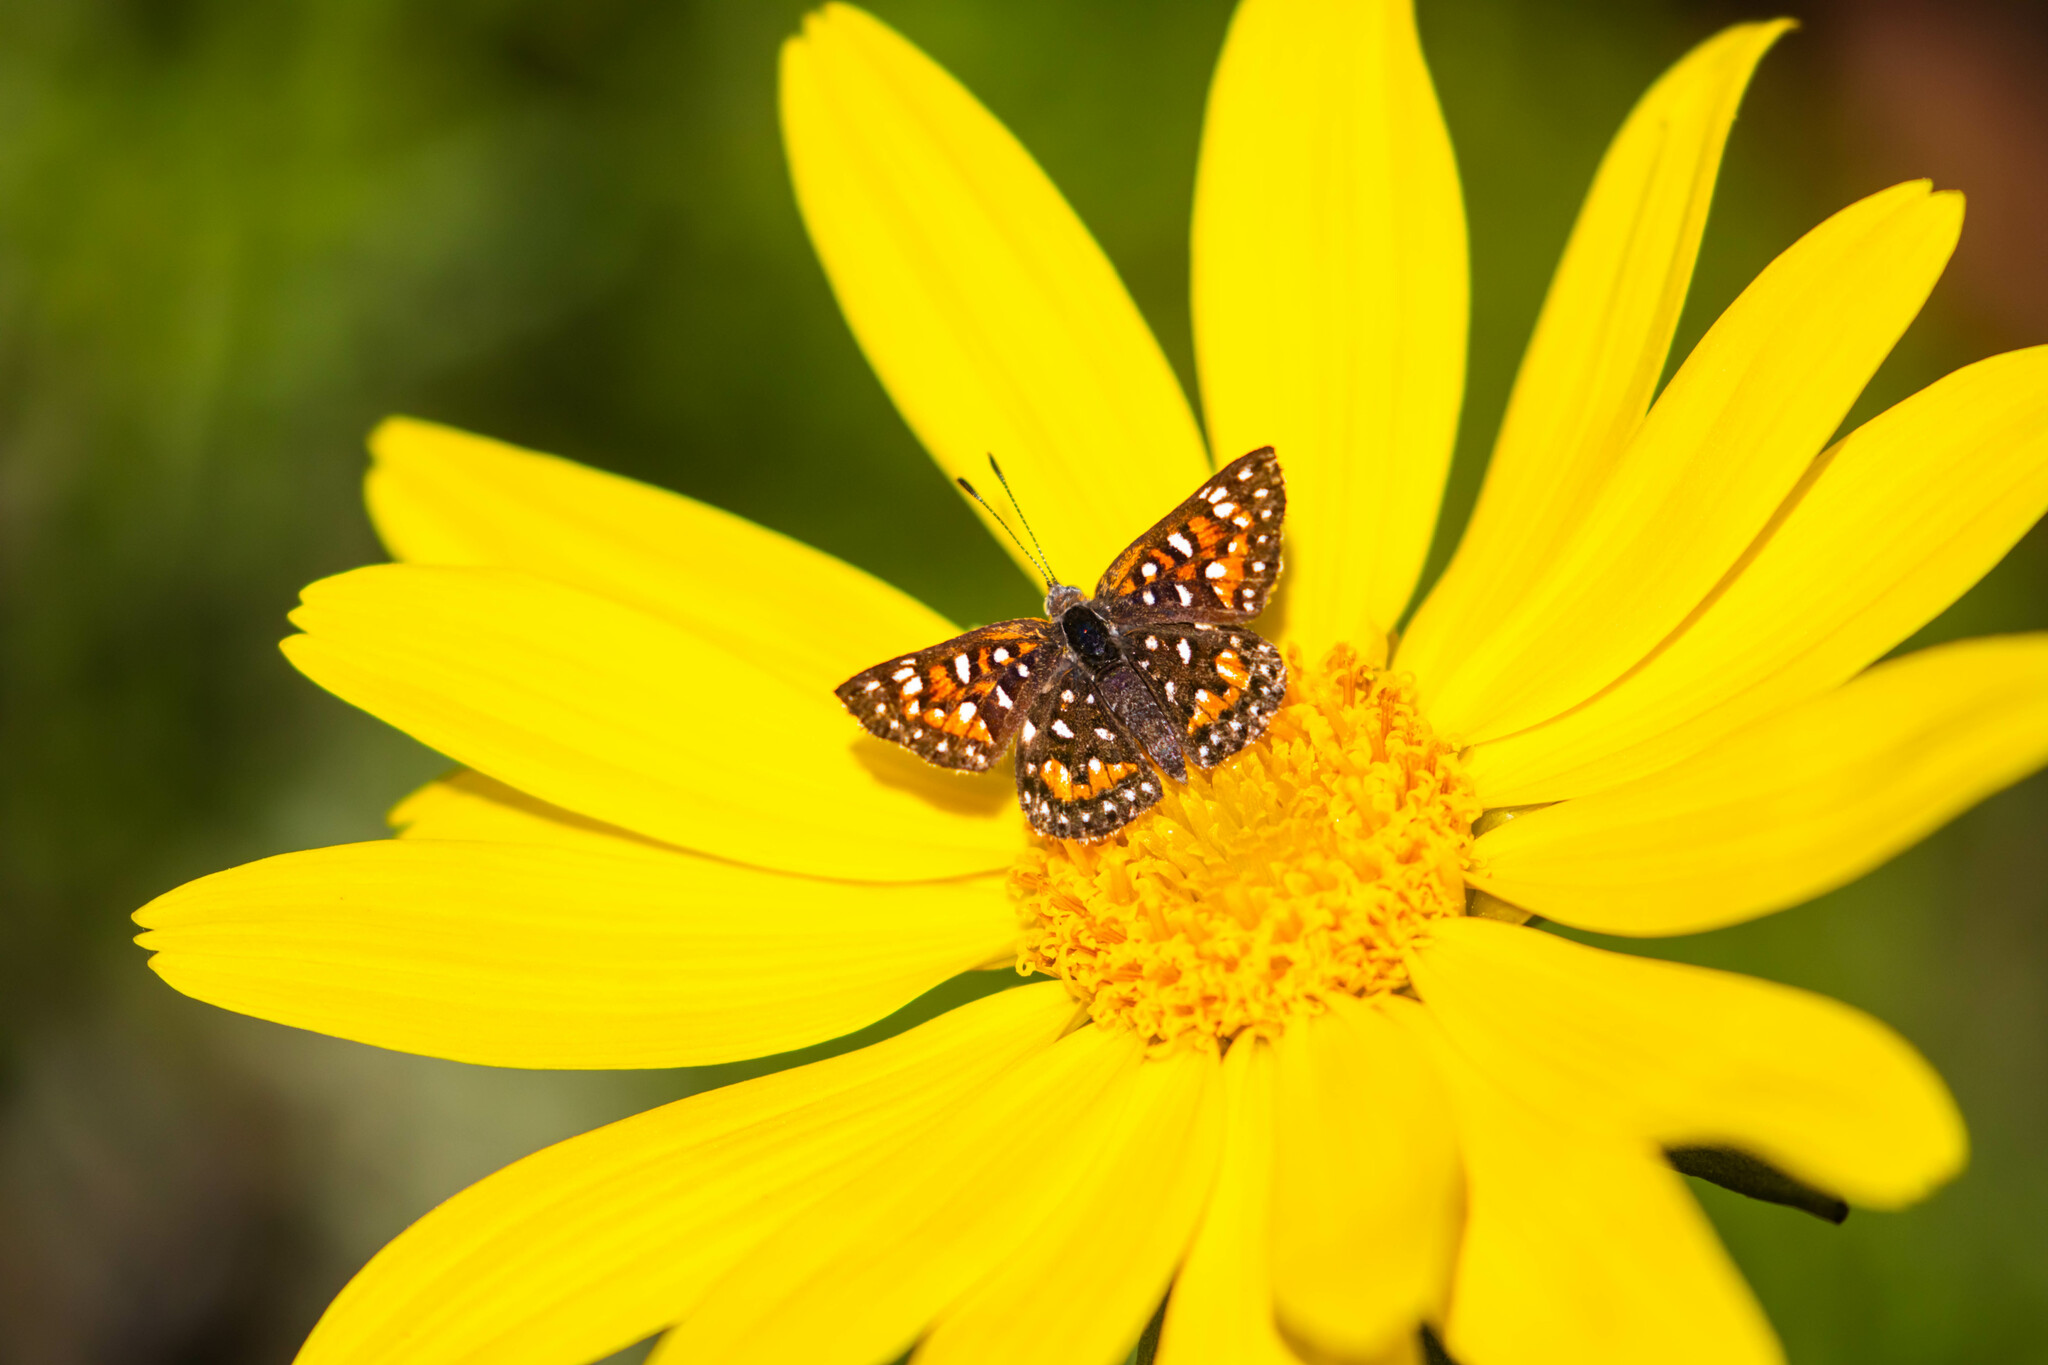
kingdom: Animalia
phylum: Arthropoda
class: Insecta
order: Lepidoptera
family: Riodinidae
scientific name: Riodinidae
